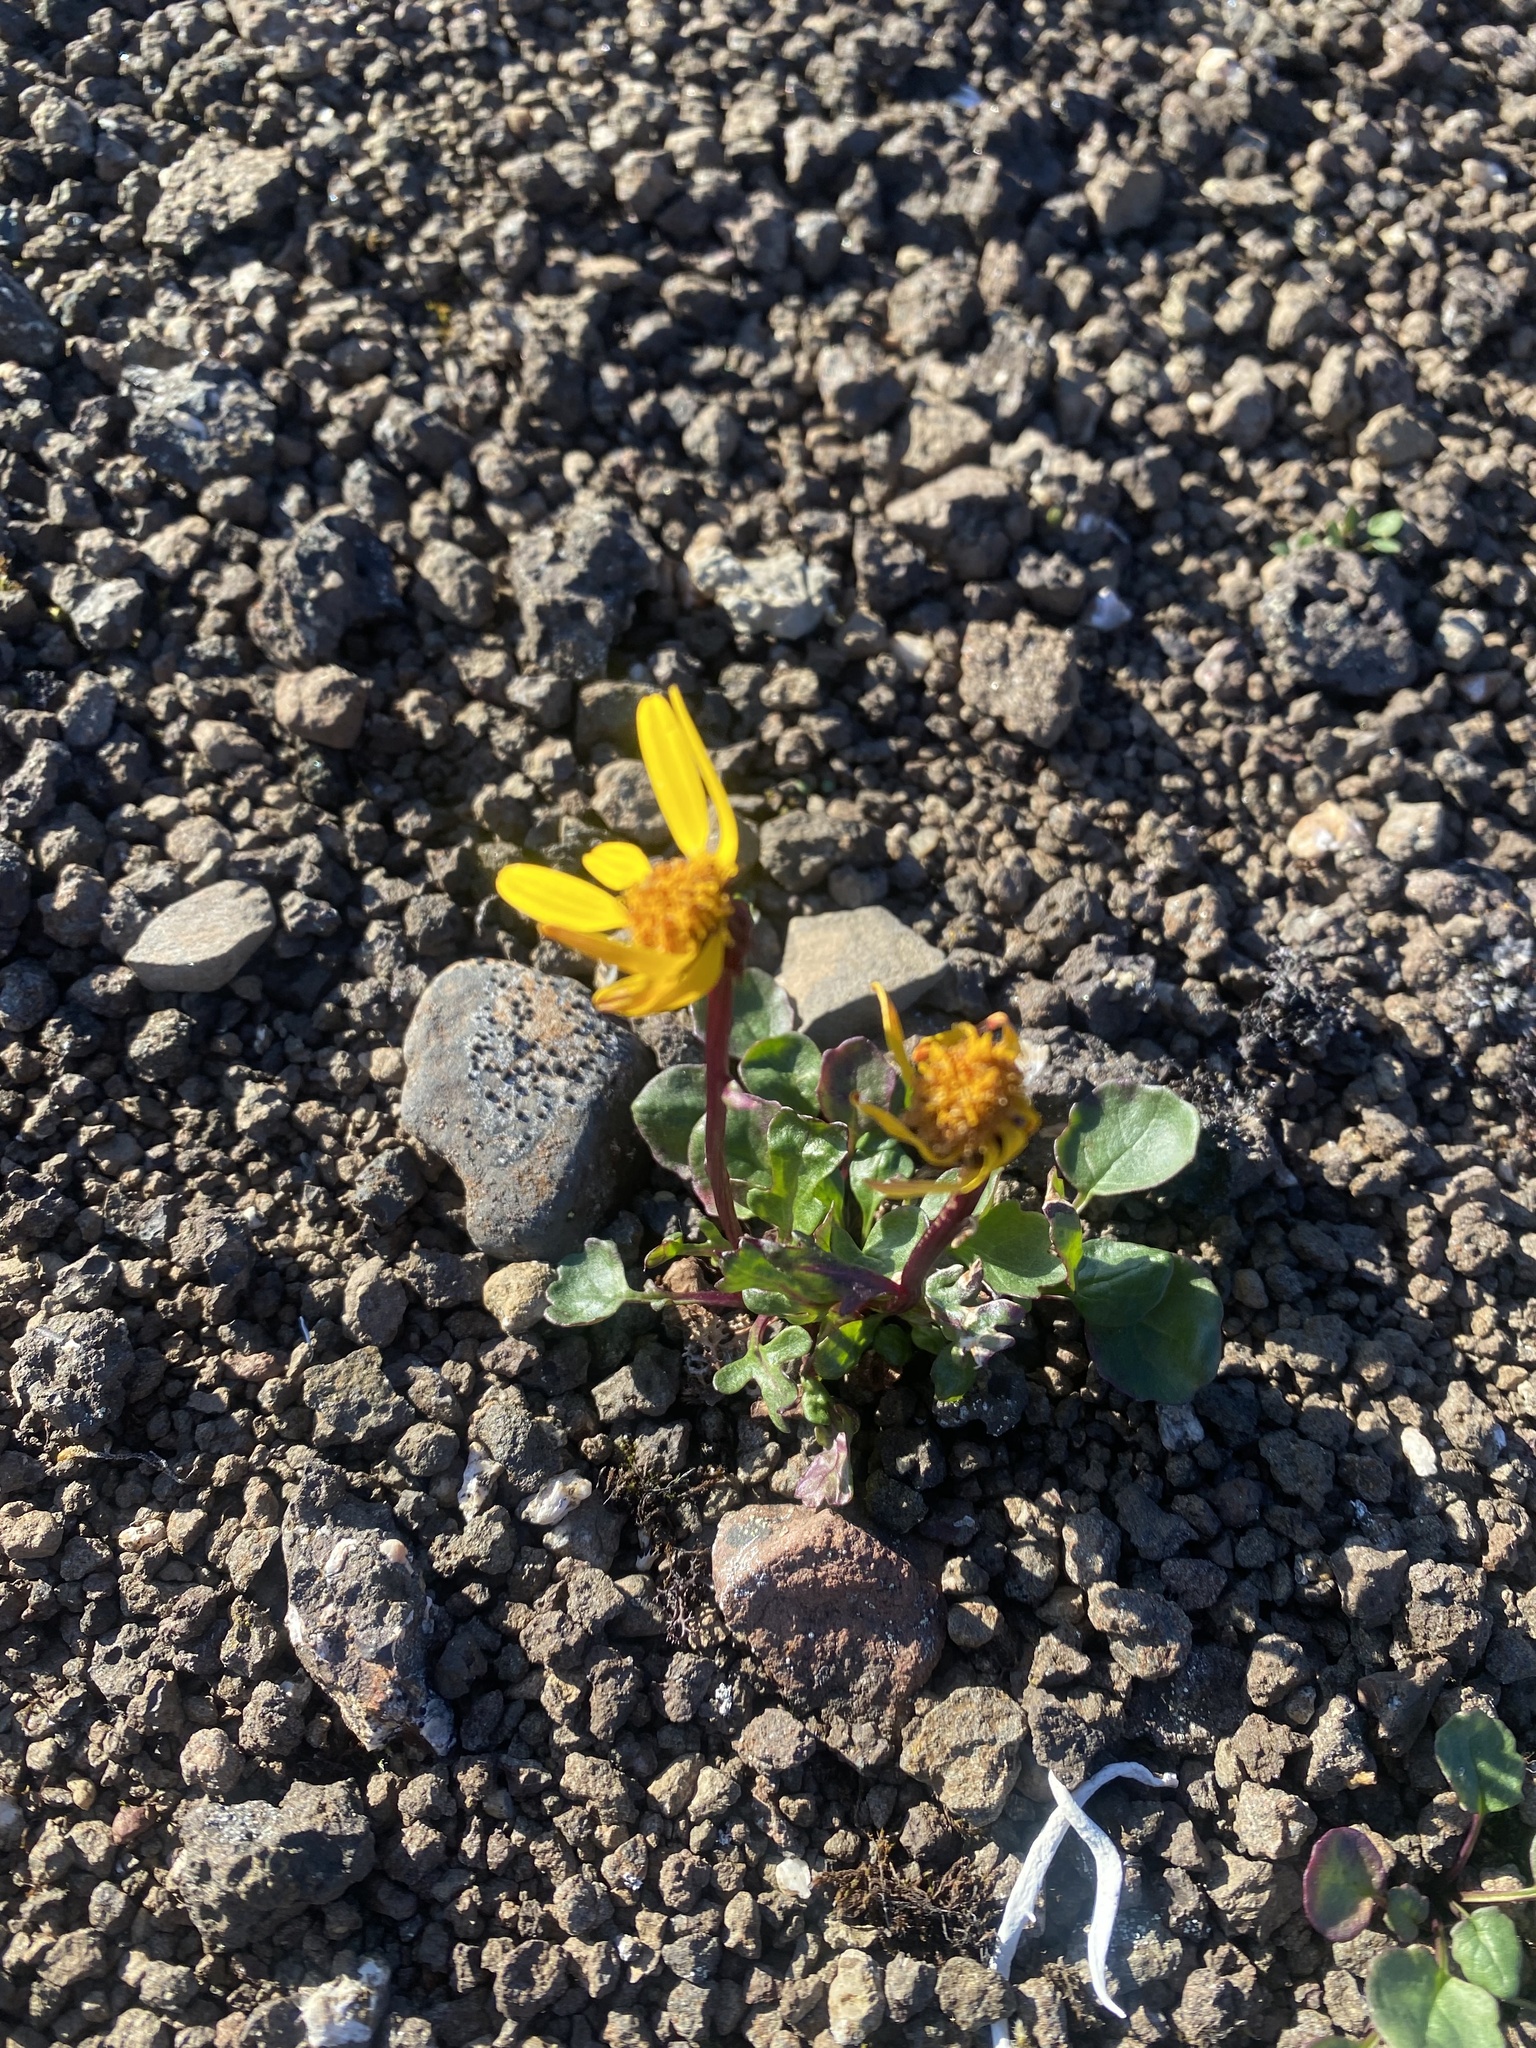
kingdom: Plantae
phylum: Tracheophyta
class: Magnoliopsida
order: Asterales
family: Asteraceae
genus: Packera
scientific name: Packera heterophylla
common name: Arctic butterweed
